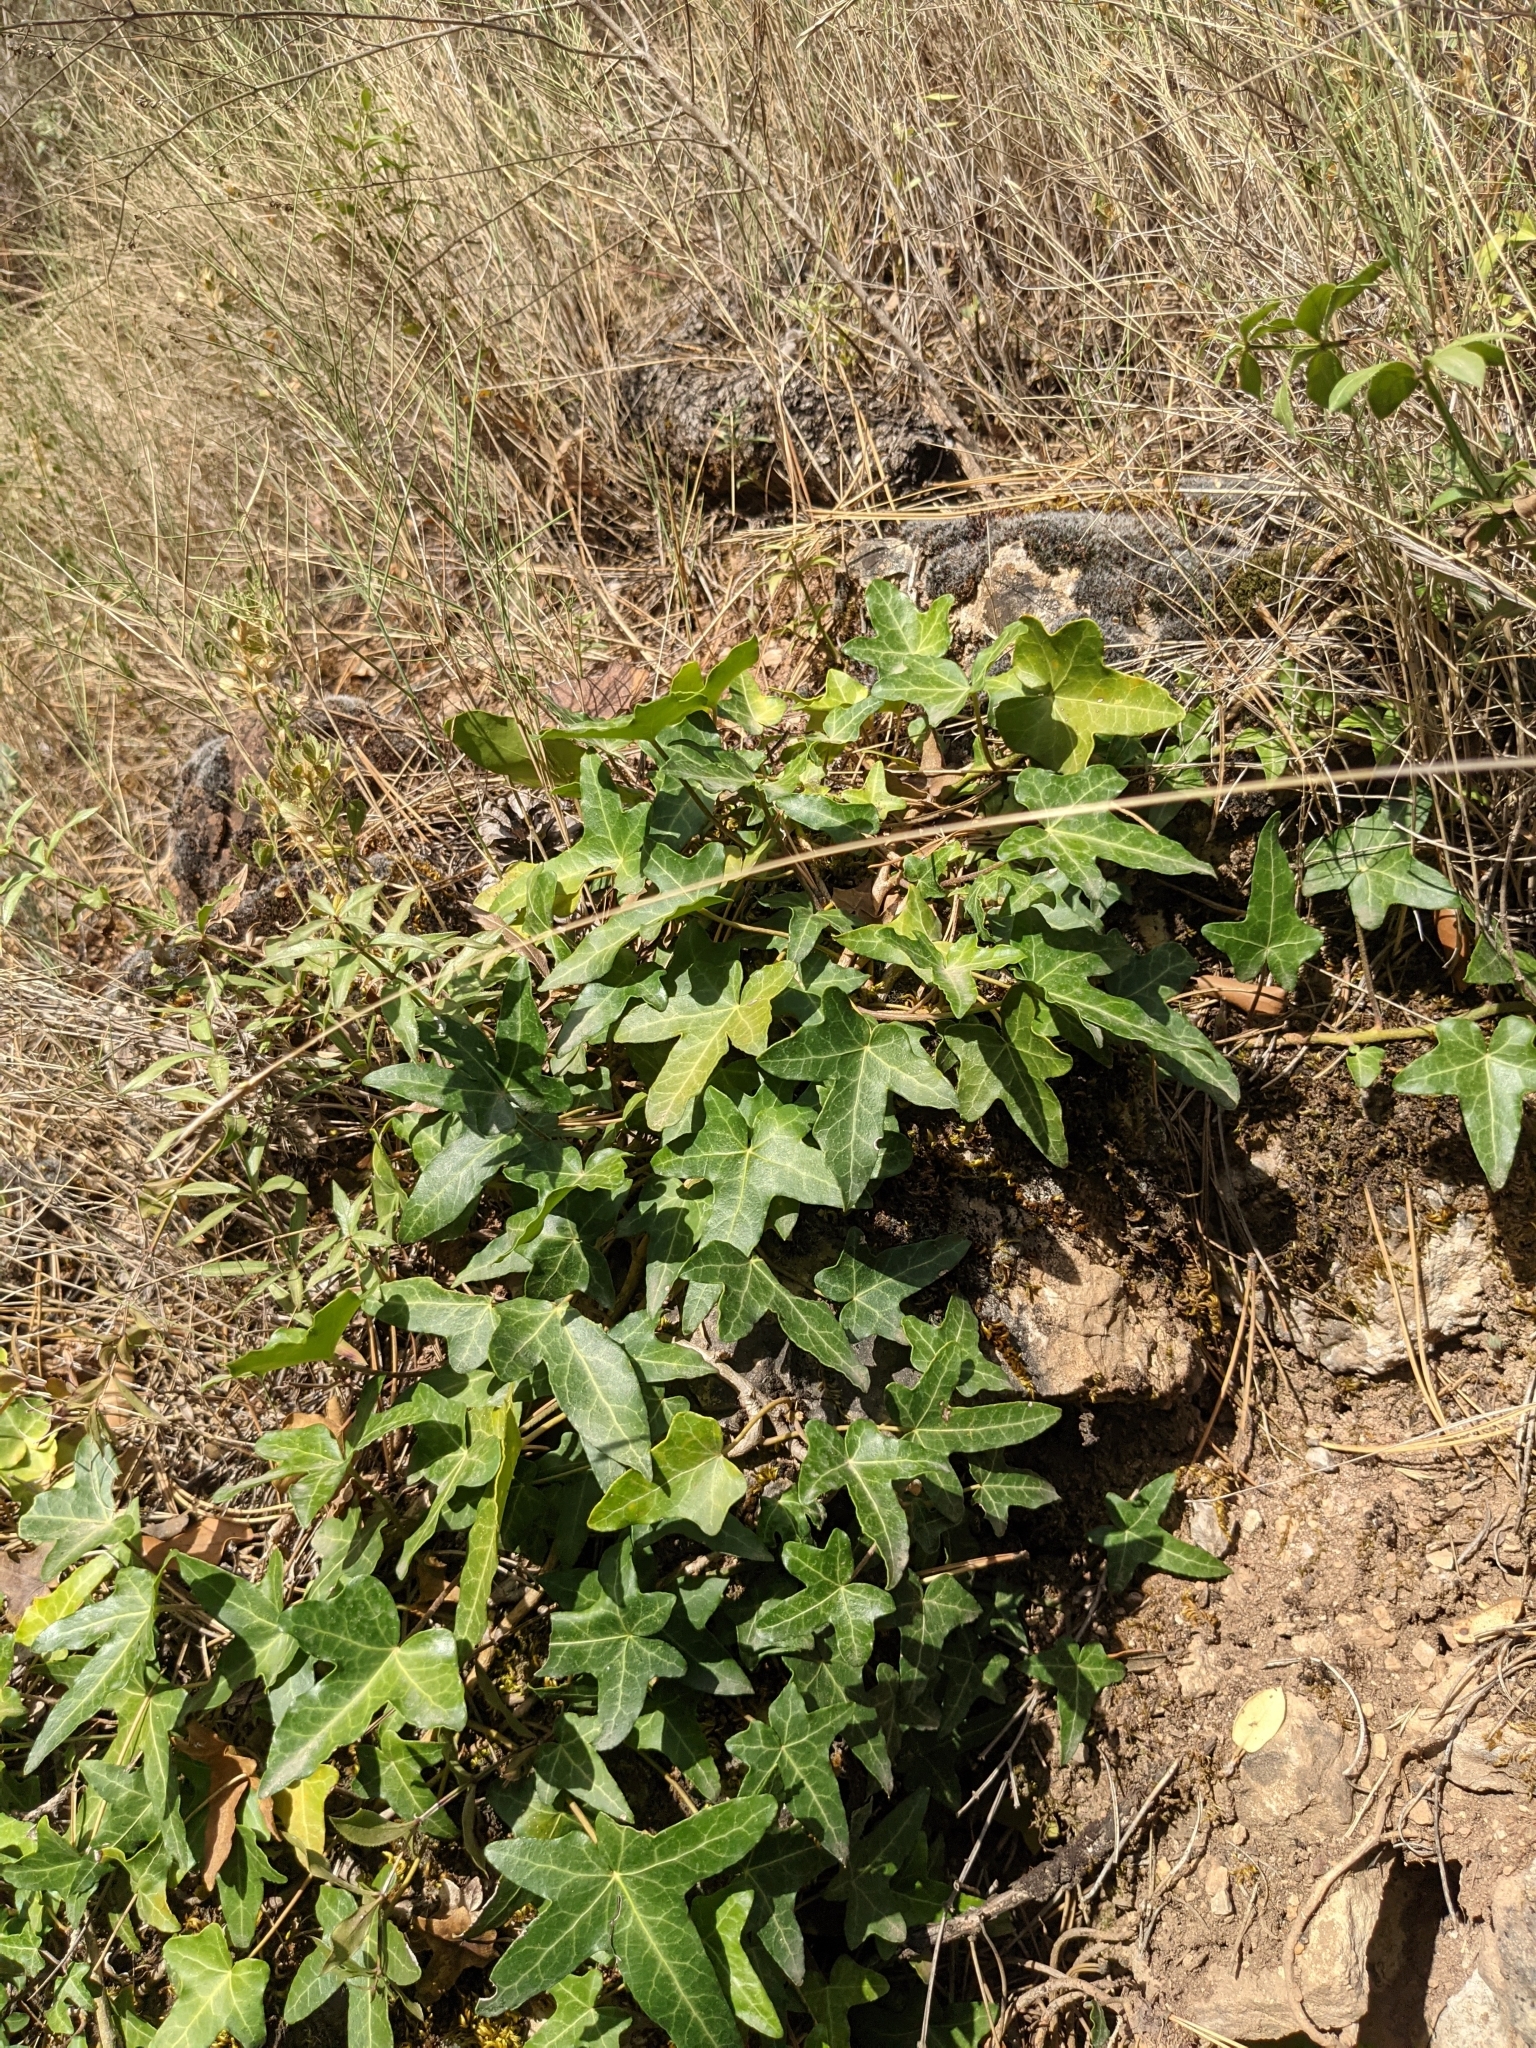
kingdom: Plantae
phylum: Tracheophyta
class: Magnoliopsida
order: Apiales
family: Araliaceae
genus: Hedera
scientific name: Hedera helix
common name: Ivy
